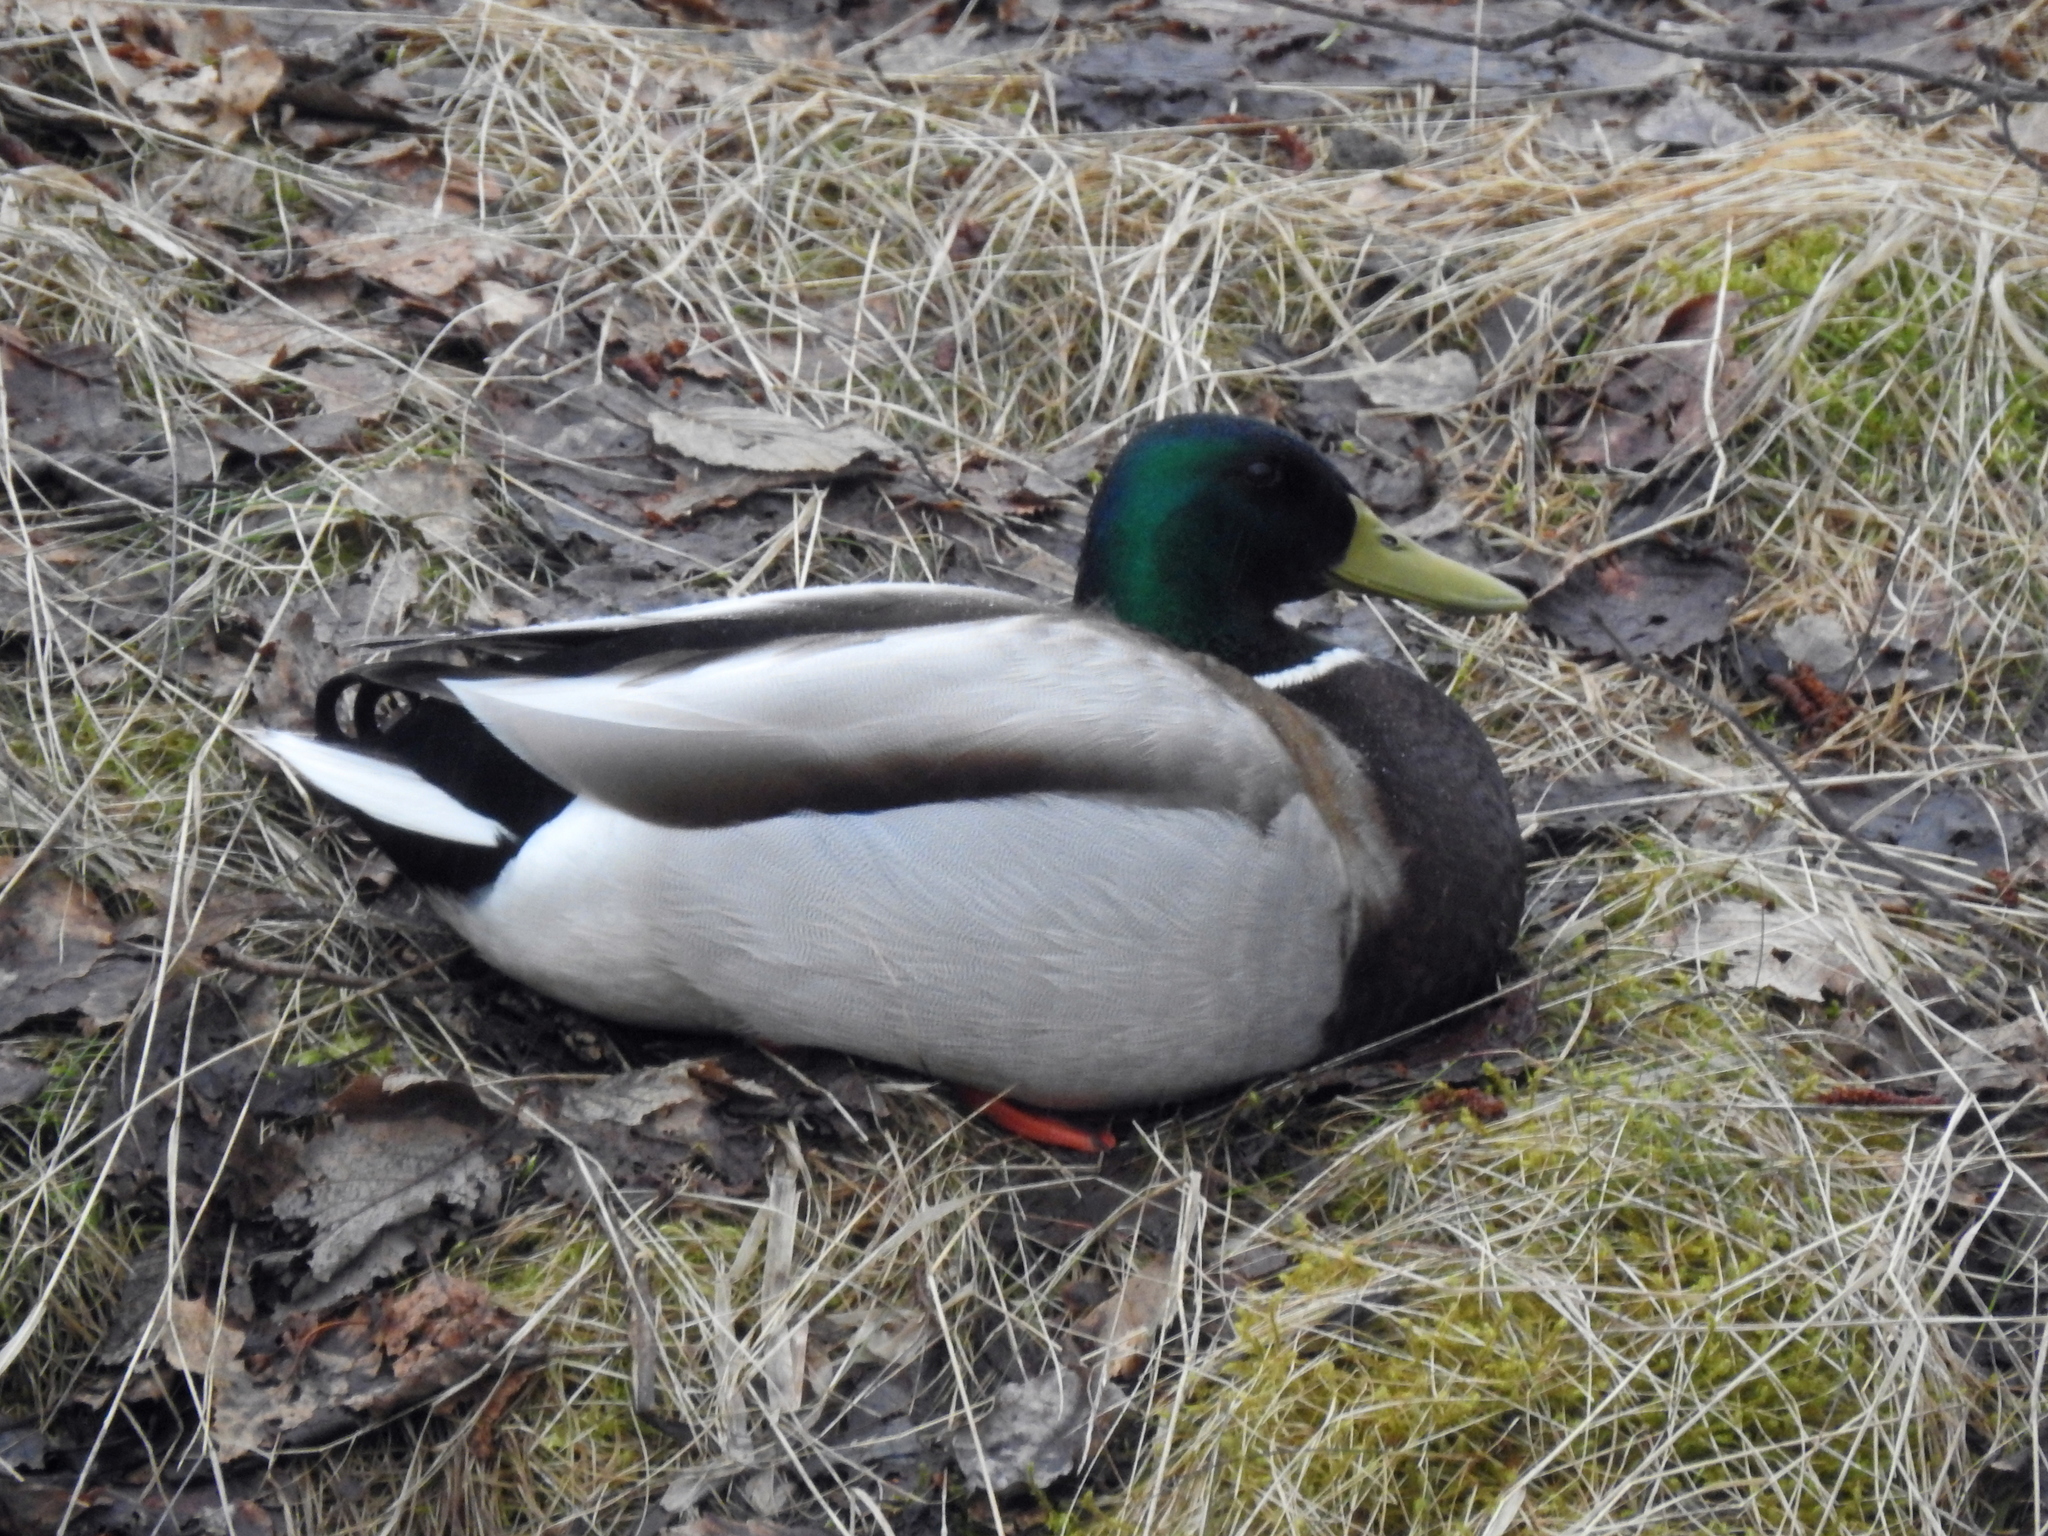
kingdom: Animalia
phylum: Chordata
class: Aves
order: Anseriformes
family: Anatidae
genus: Anas
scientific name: Anas platyrhynchos
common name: Mallard
